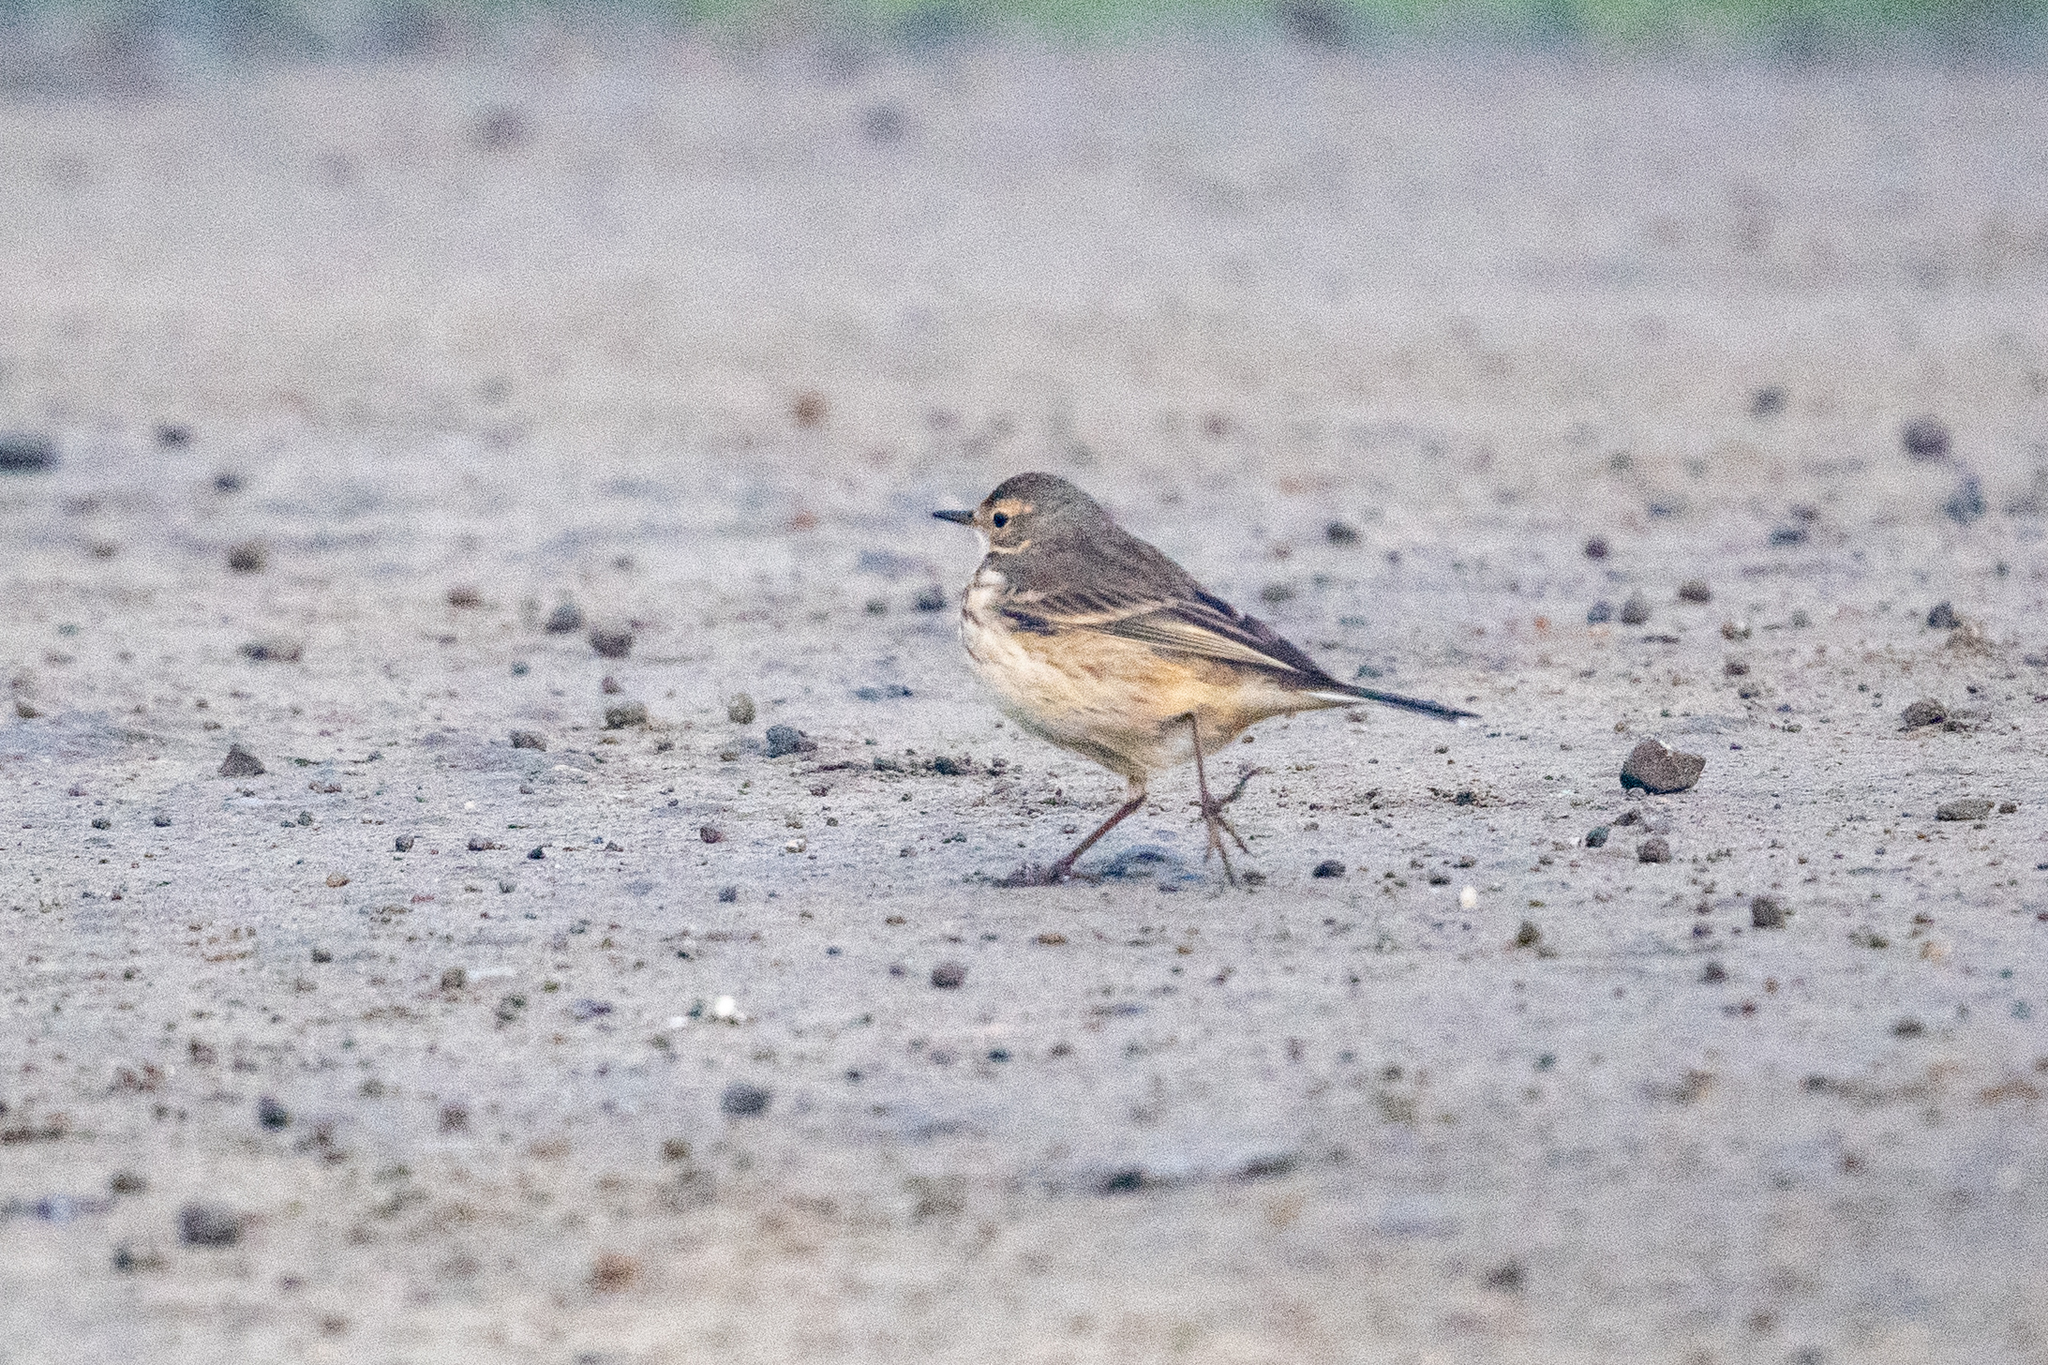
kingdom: Animalia
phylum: Chordata
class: Aves
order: Passeriformes
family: Motacillidae
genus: Anthus
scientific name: Anthus rubescens
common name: Buff-bellied pipit
